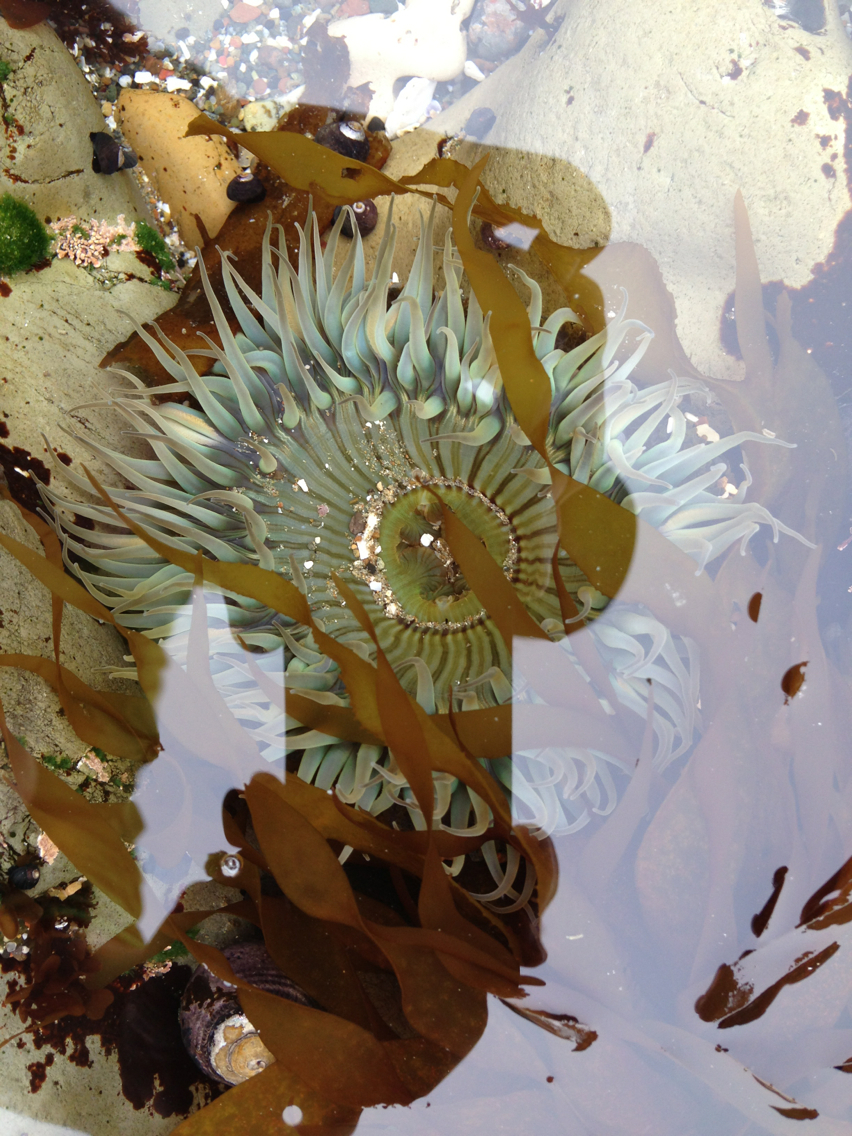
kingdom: Animalia
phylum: Cnidaria
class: Anthozoa
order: Actiniaria
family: Actiniidae
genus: Anthopleura
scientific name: Anthopleura sola
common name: Sun anemone
